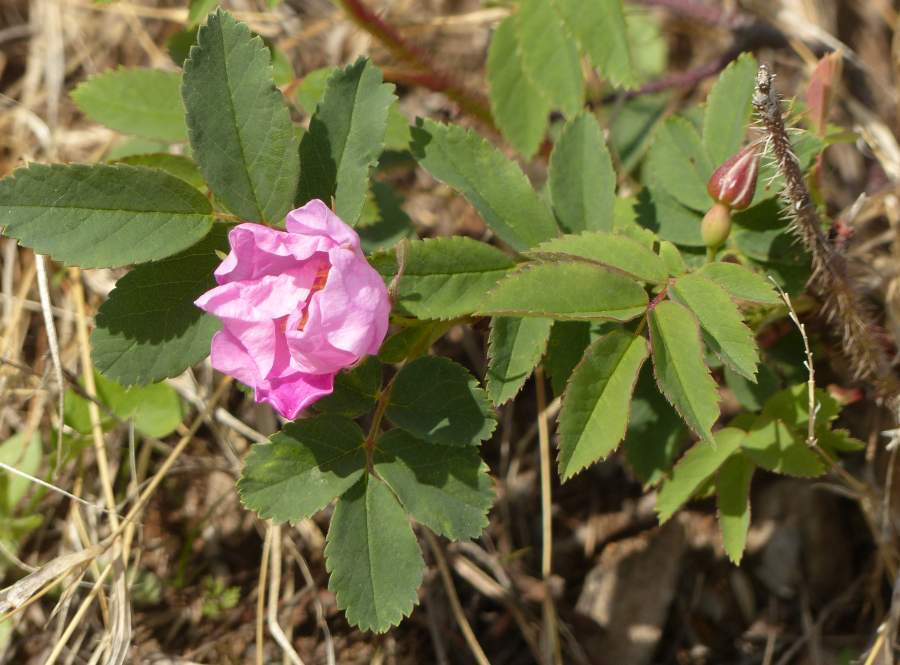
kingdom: Plantae
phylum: Tracheophyta
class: Magnoliopsida
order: Rosales
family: Rosaceae
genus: Rosa
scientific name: Rosa acicularis
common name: Prickly rose
